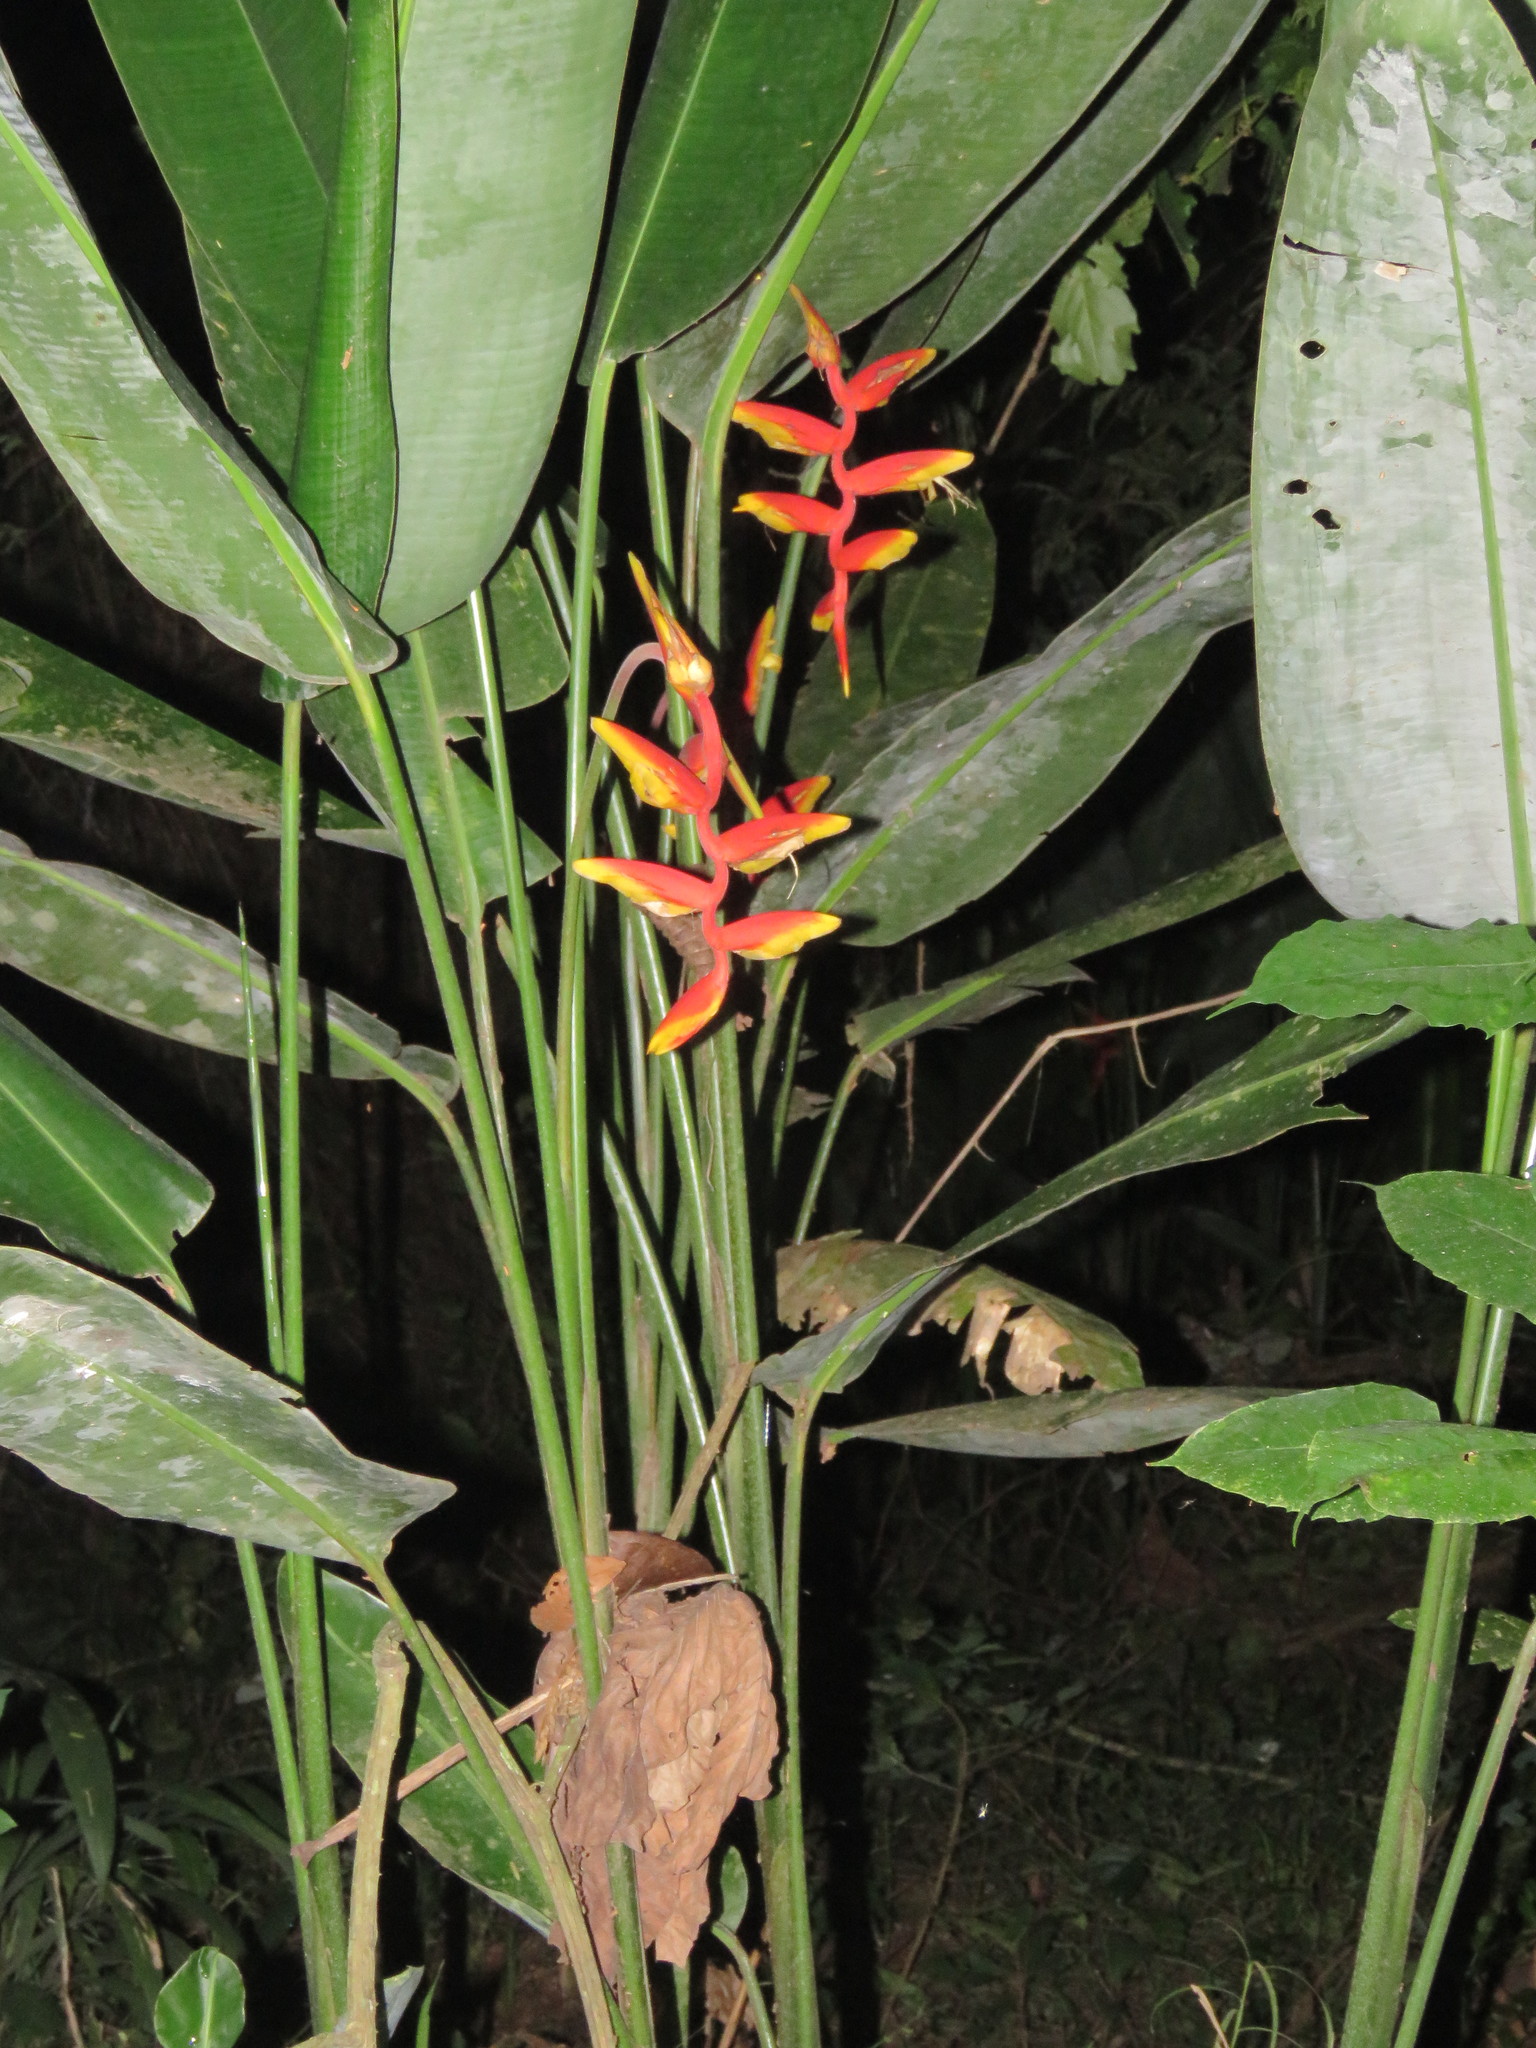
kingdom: Plantae
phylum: Tracheophyta
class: Liliopsida
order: Zingiberales
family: Heliconiaceae
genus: Heliconia
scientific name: Heliconia marginata
